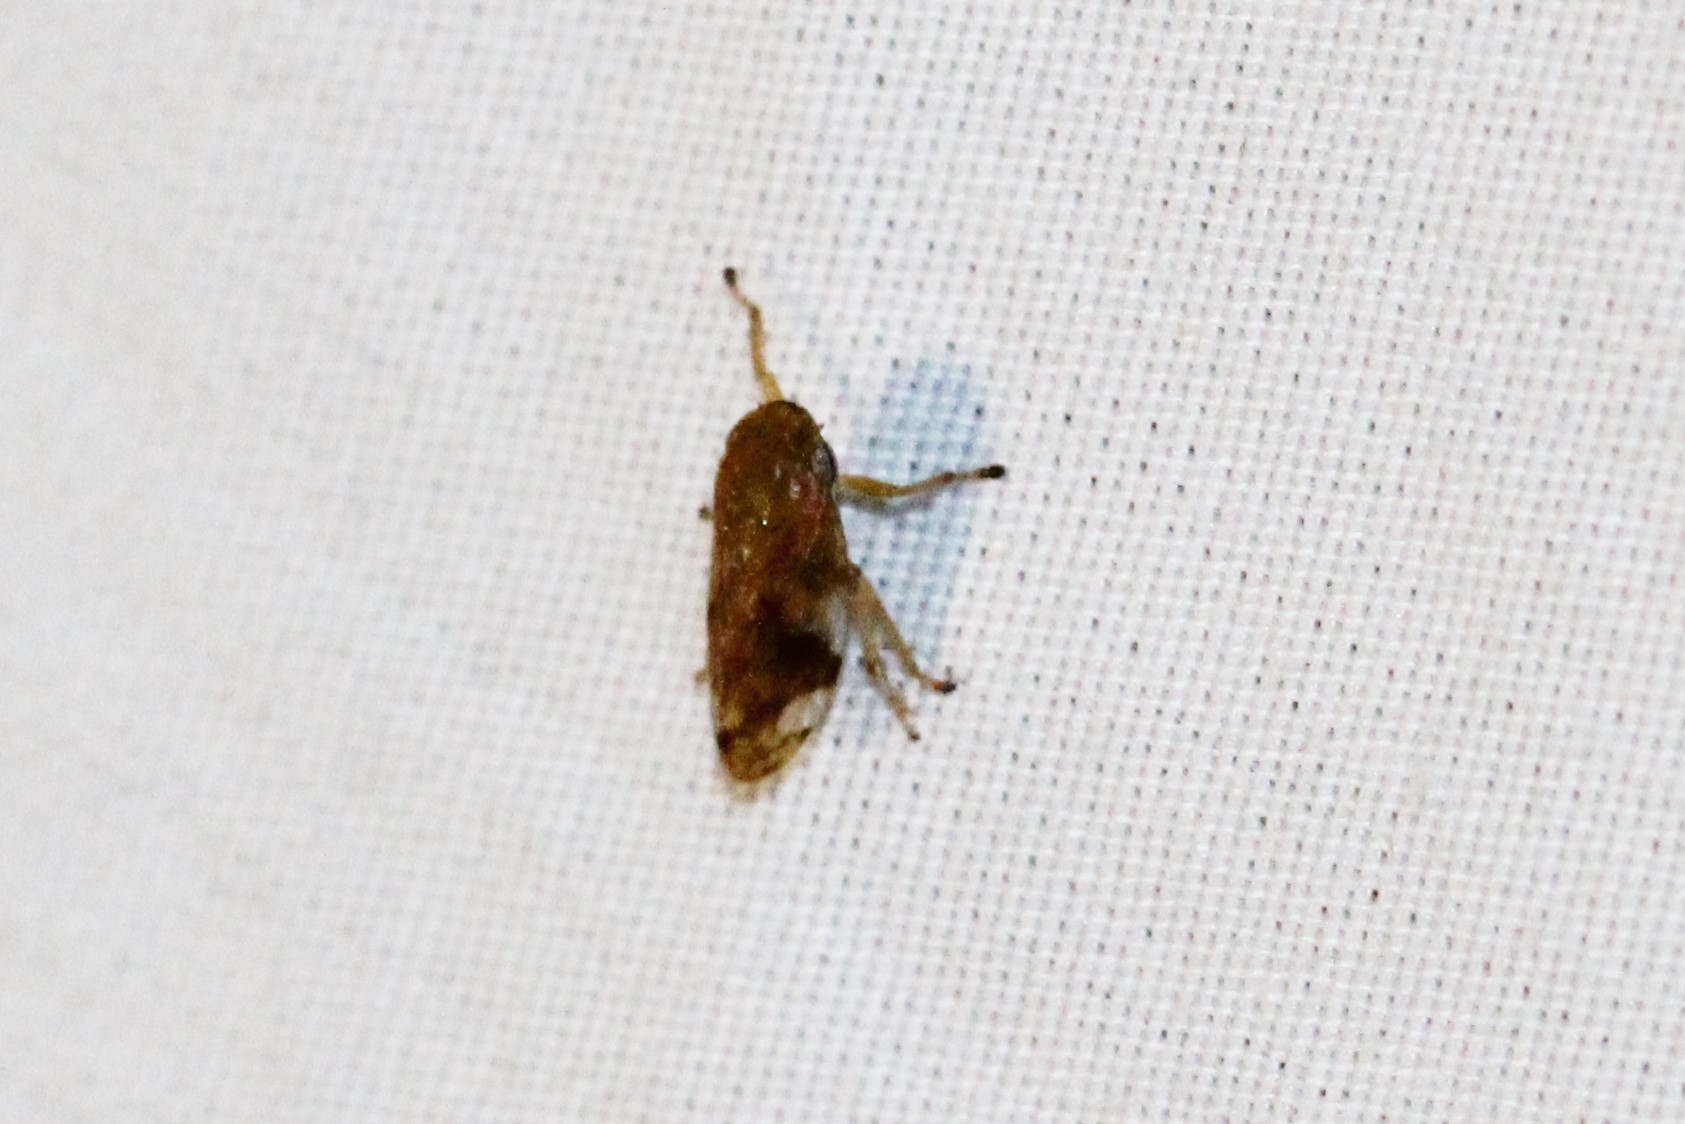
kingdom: Animalia
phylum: Arthropoda
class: Insecta
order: Hemiptera
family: Aphrophoridae
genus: Philaenus
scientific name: Philaenus spumarius
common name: Meadow spittlebug
